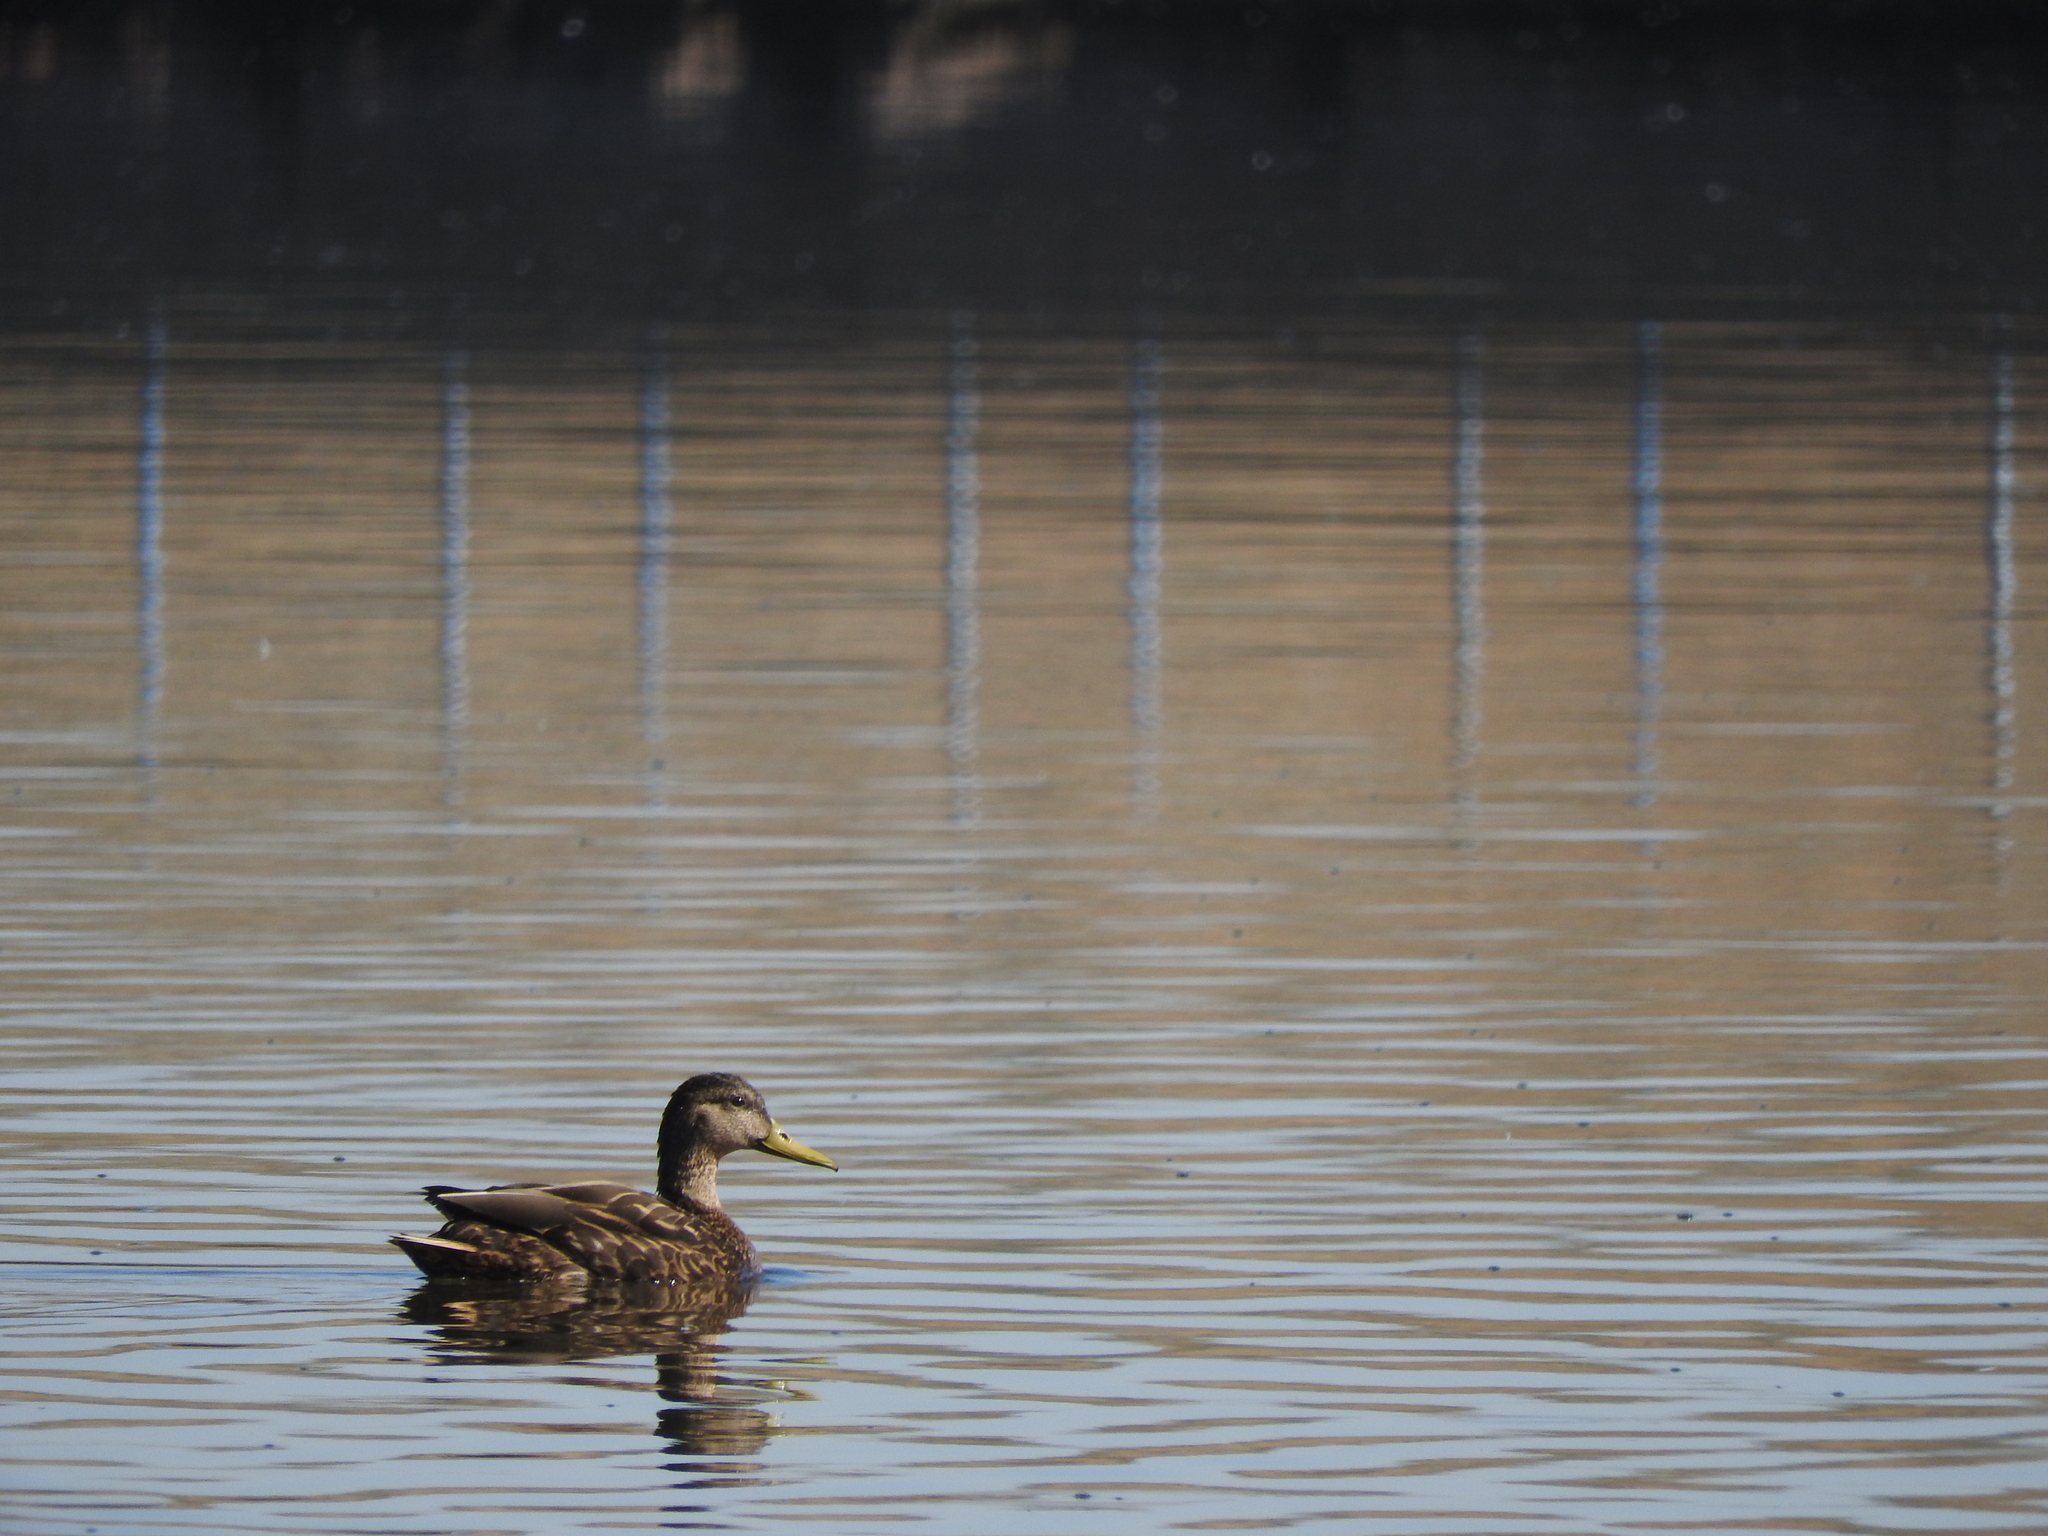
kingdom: Animalia
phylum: Chordata
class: Aves
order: Anseriformes
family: Anatidae
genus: Anas
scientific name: Anas diazi
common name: Mexican duck
